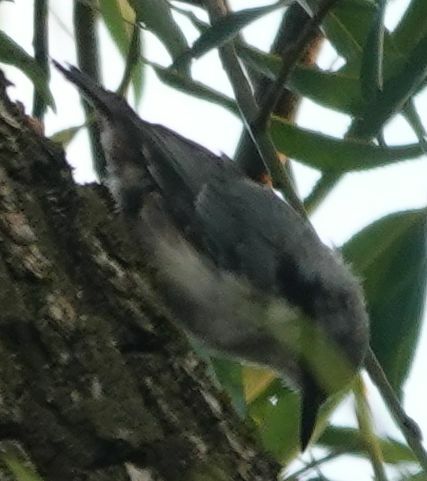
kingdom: Animalia
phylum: Chordata
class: Aves
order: Passeriformes
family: Sittidae
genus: Sitta
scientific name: Sitta europaea
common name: Eurasian nuthatch
